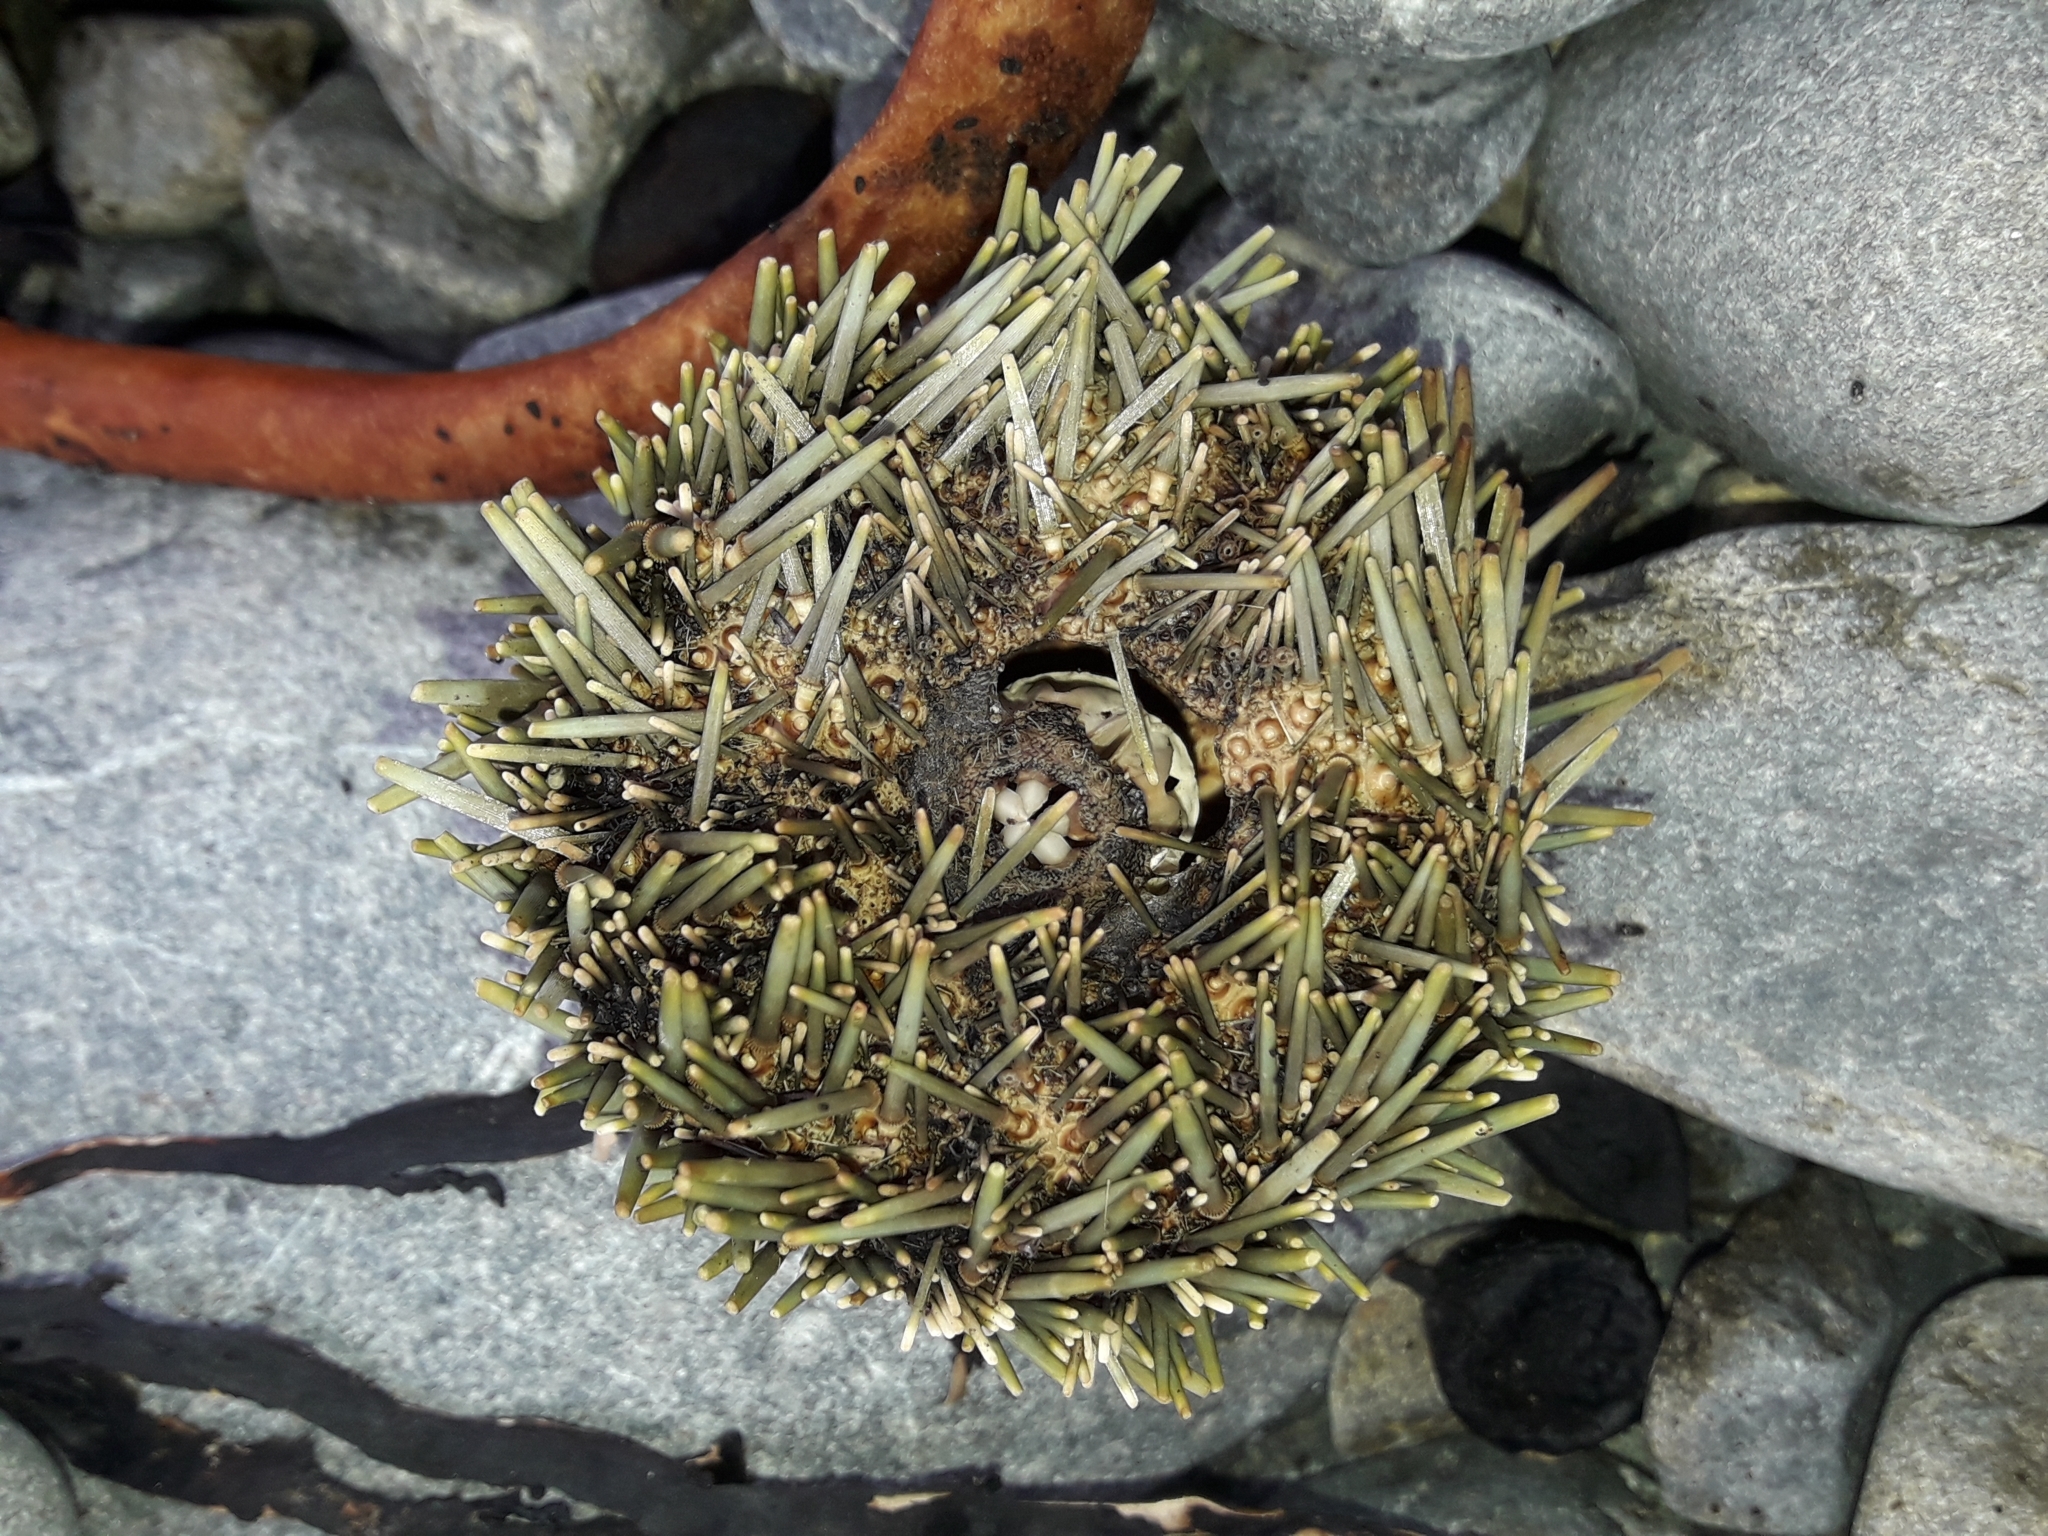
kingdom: Animalia
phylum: Echinodermata
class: Echinoidea
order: Camarodonta
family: Echinometridae
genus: Evechinus
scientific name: Evechinus chloroticus
